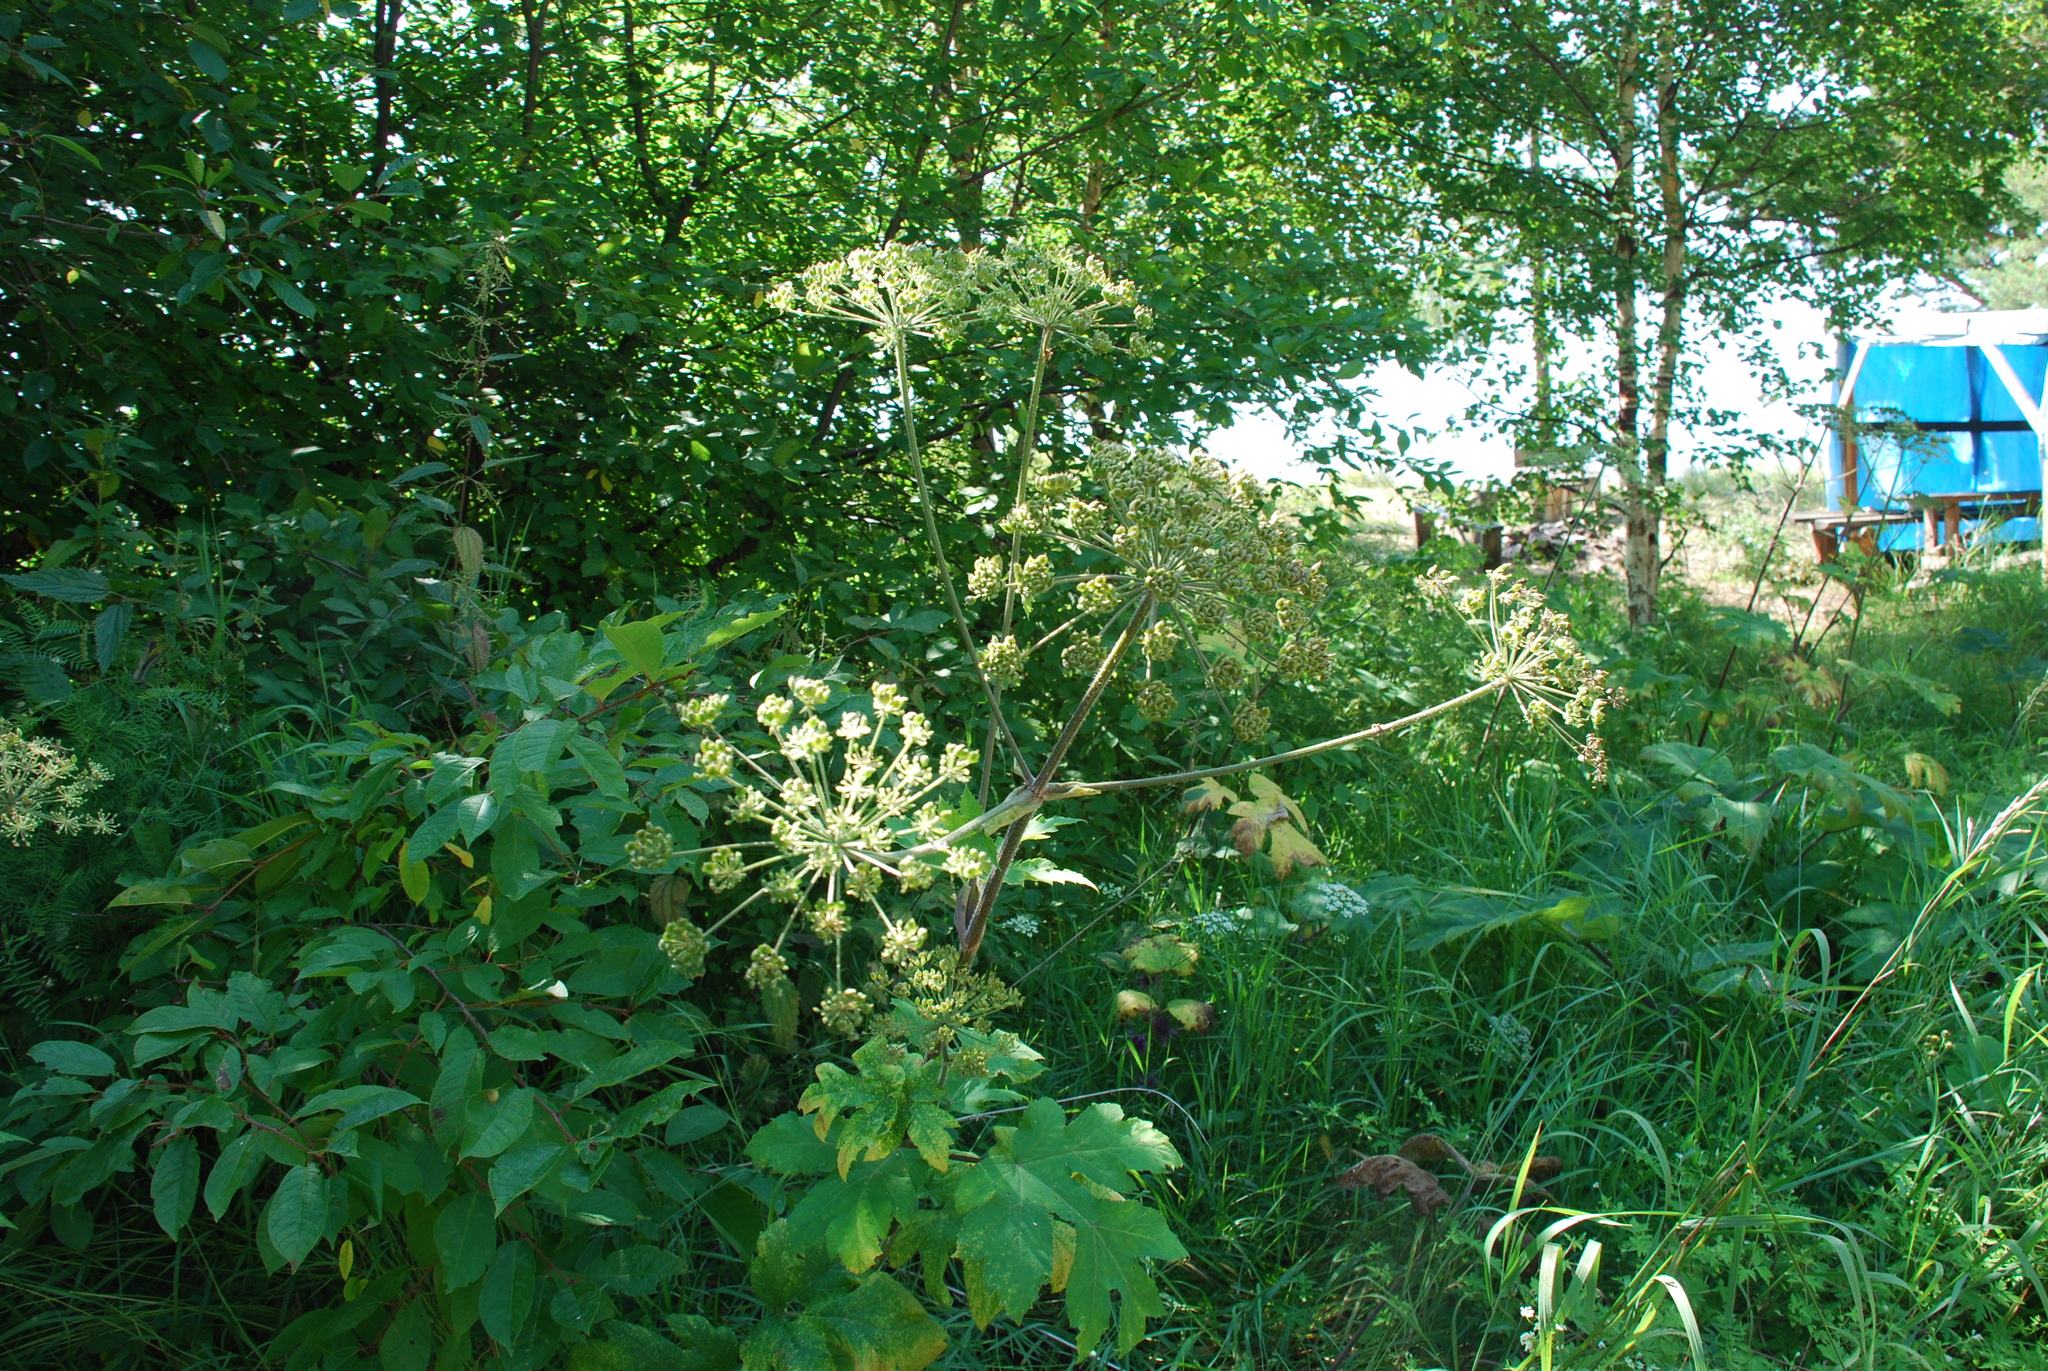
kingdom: Plantae
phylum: Tracheophyta
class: Magnoliopsida
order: Apiales
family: Apiaceae
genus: Heracleum
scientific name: Heracleum dissectum
